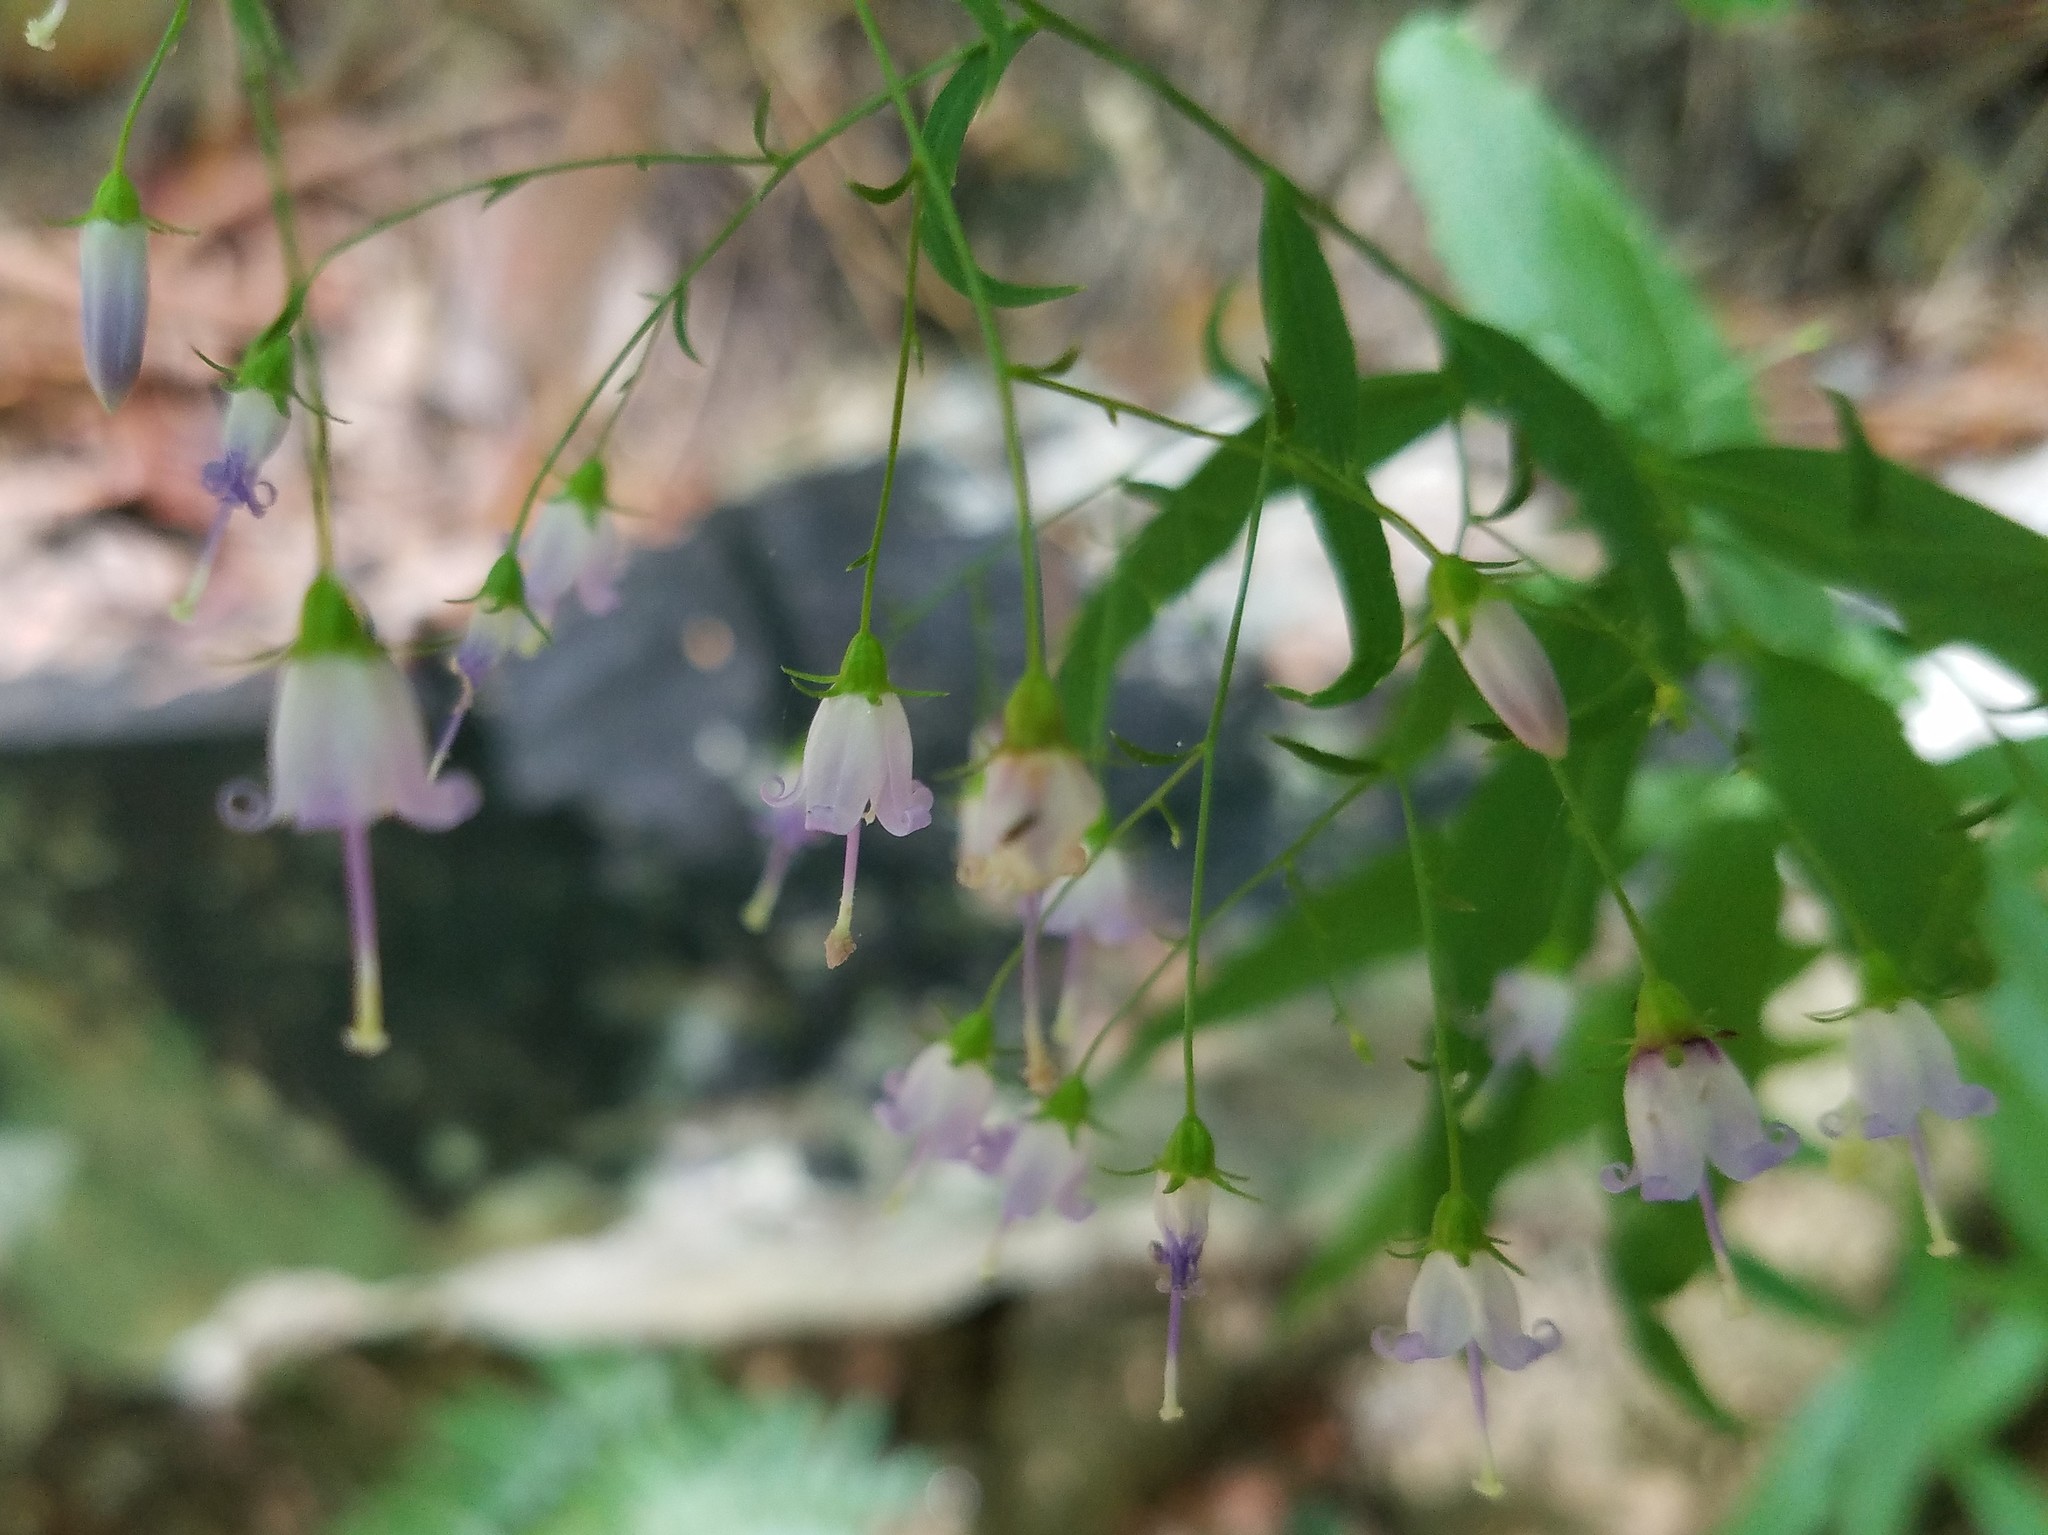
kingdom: Plantae
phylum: Tracheophyta
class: Magnoliopsida
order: Asterales
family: Campanulaceae
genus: Campanula
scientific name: Campanula divaricata
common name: Appalachian bellflower
